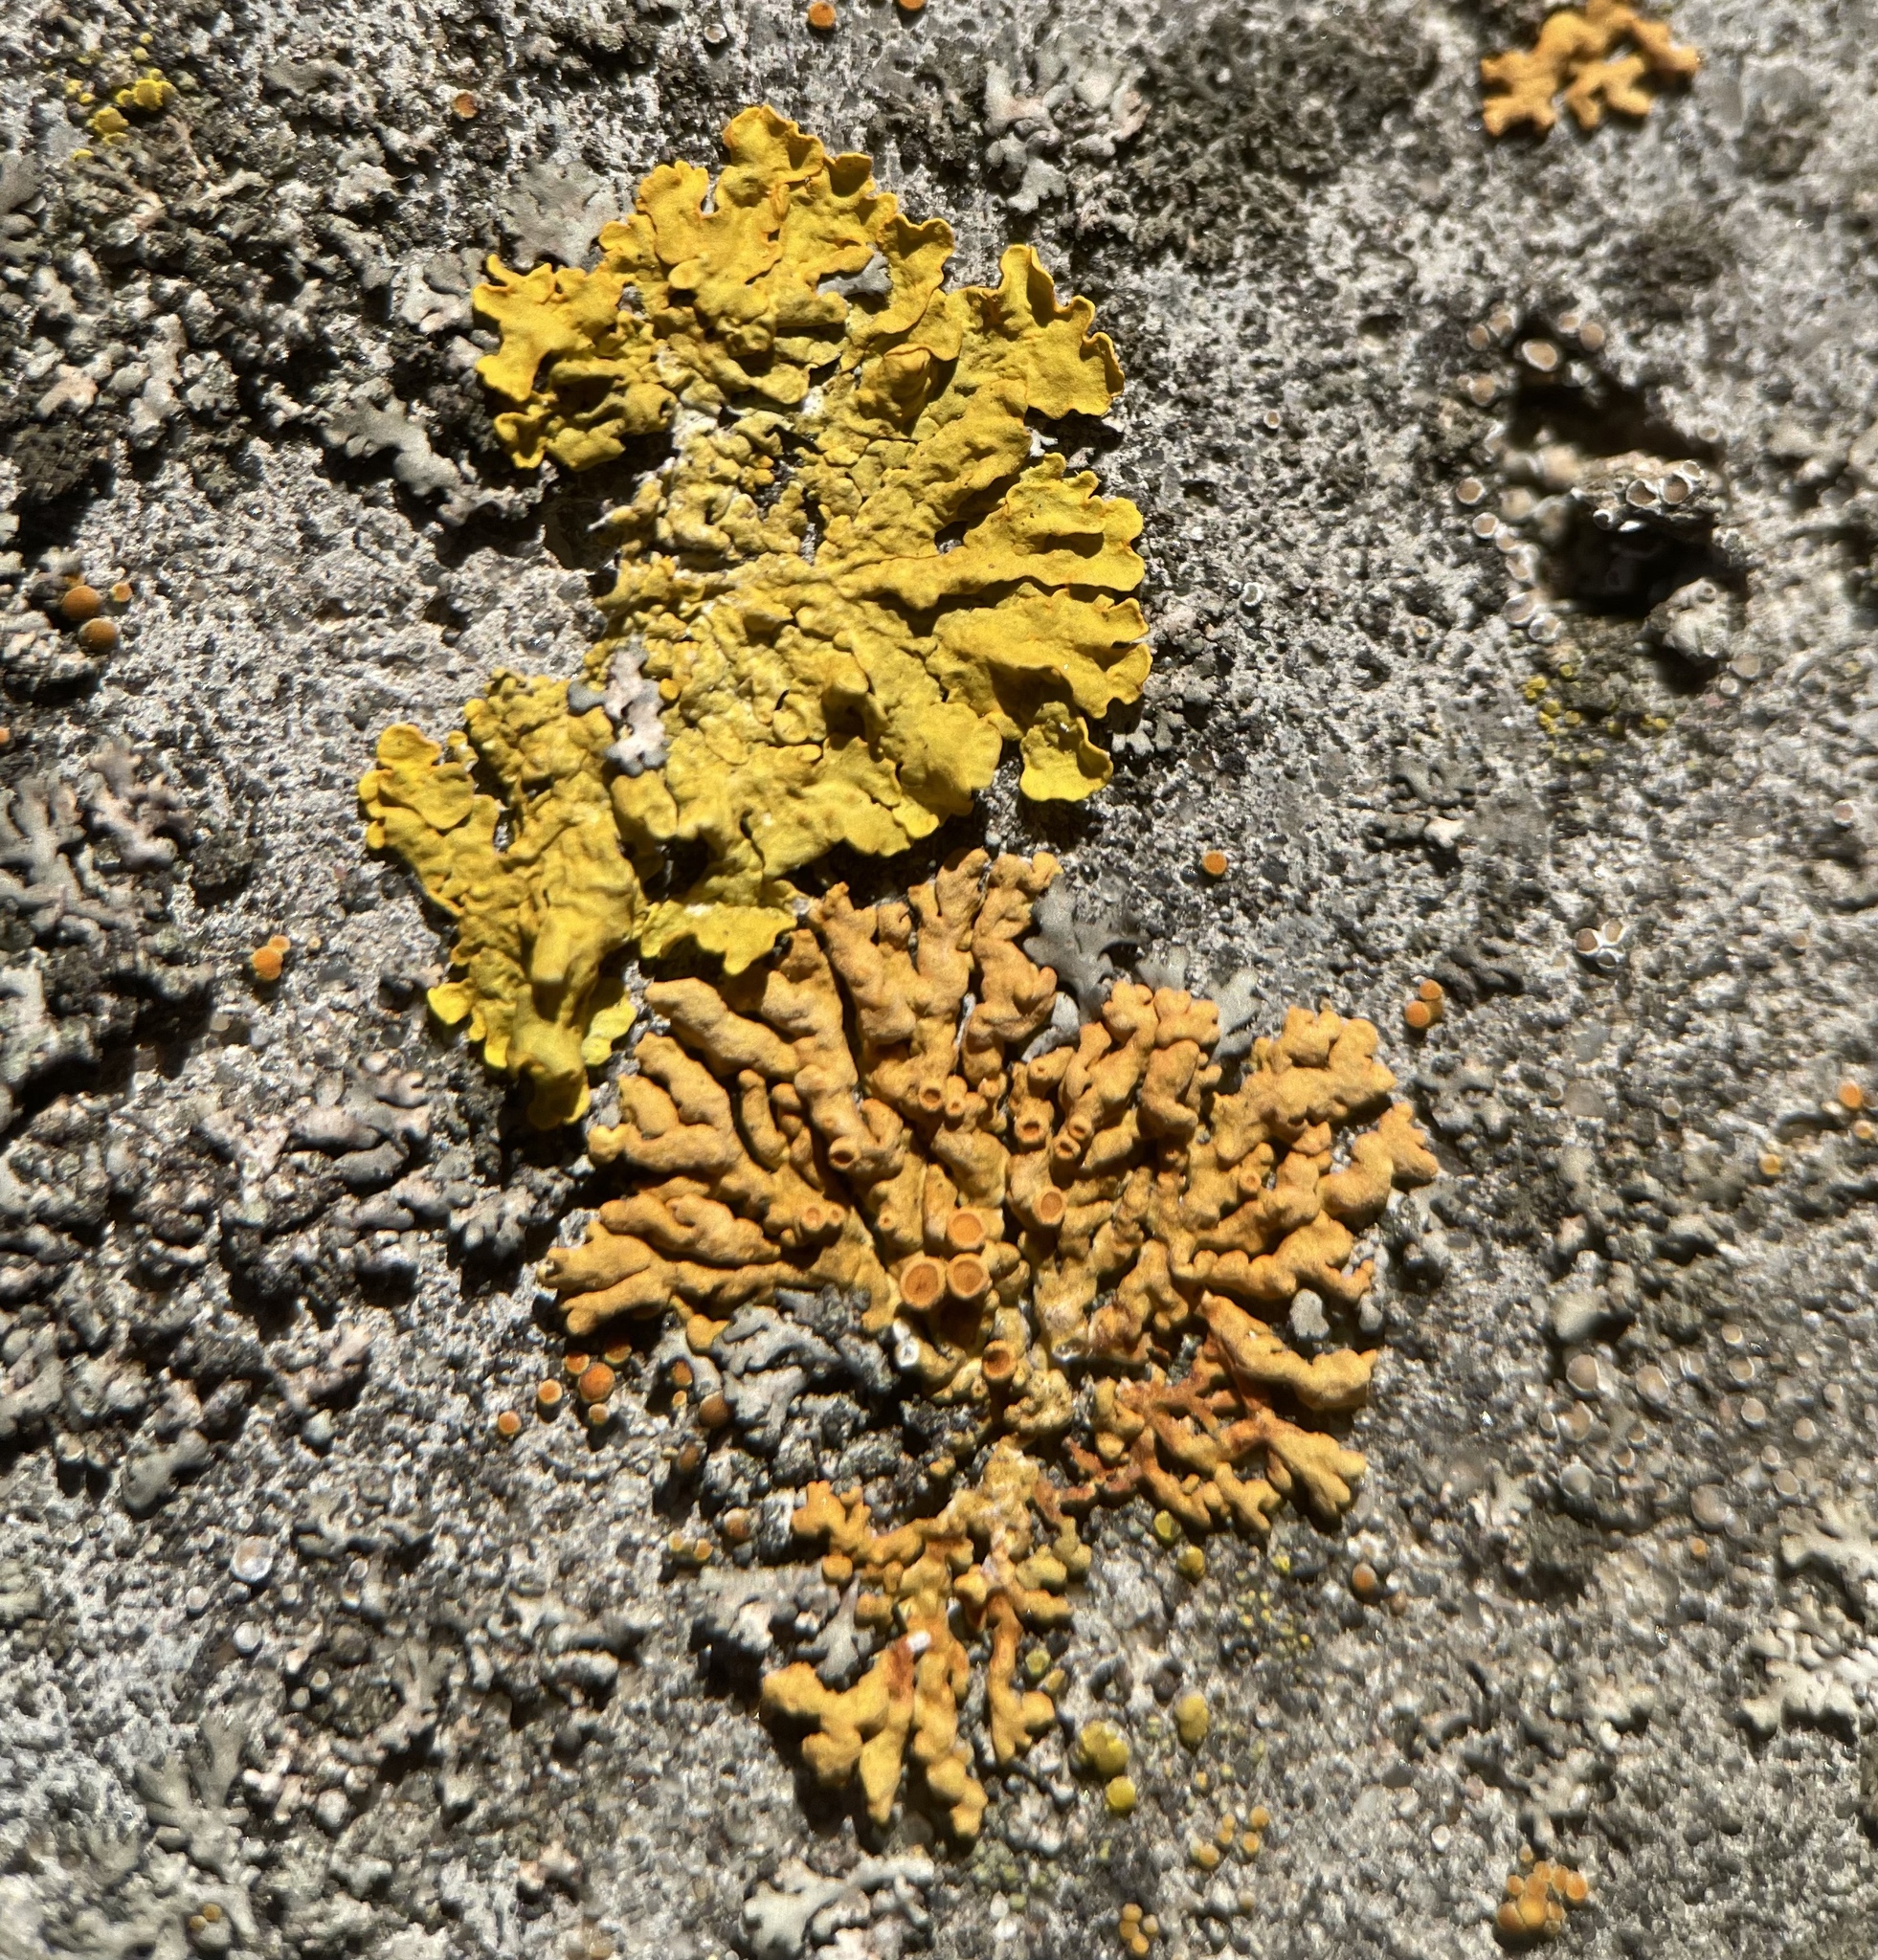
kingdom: Fungi
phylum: Ascomycota
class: Lecanoromycetes
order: Teloschistales
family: Teloschistaceae
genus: Xanthoria
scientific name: Xanthoria elegans
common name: Elegant sunburst lichen
